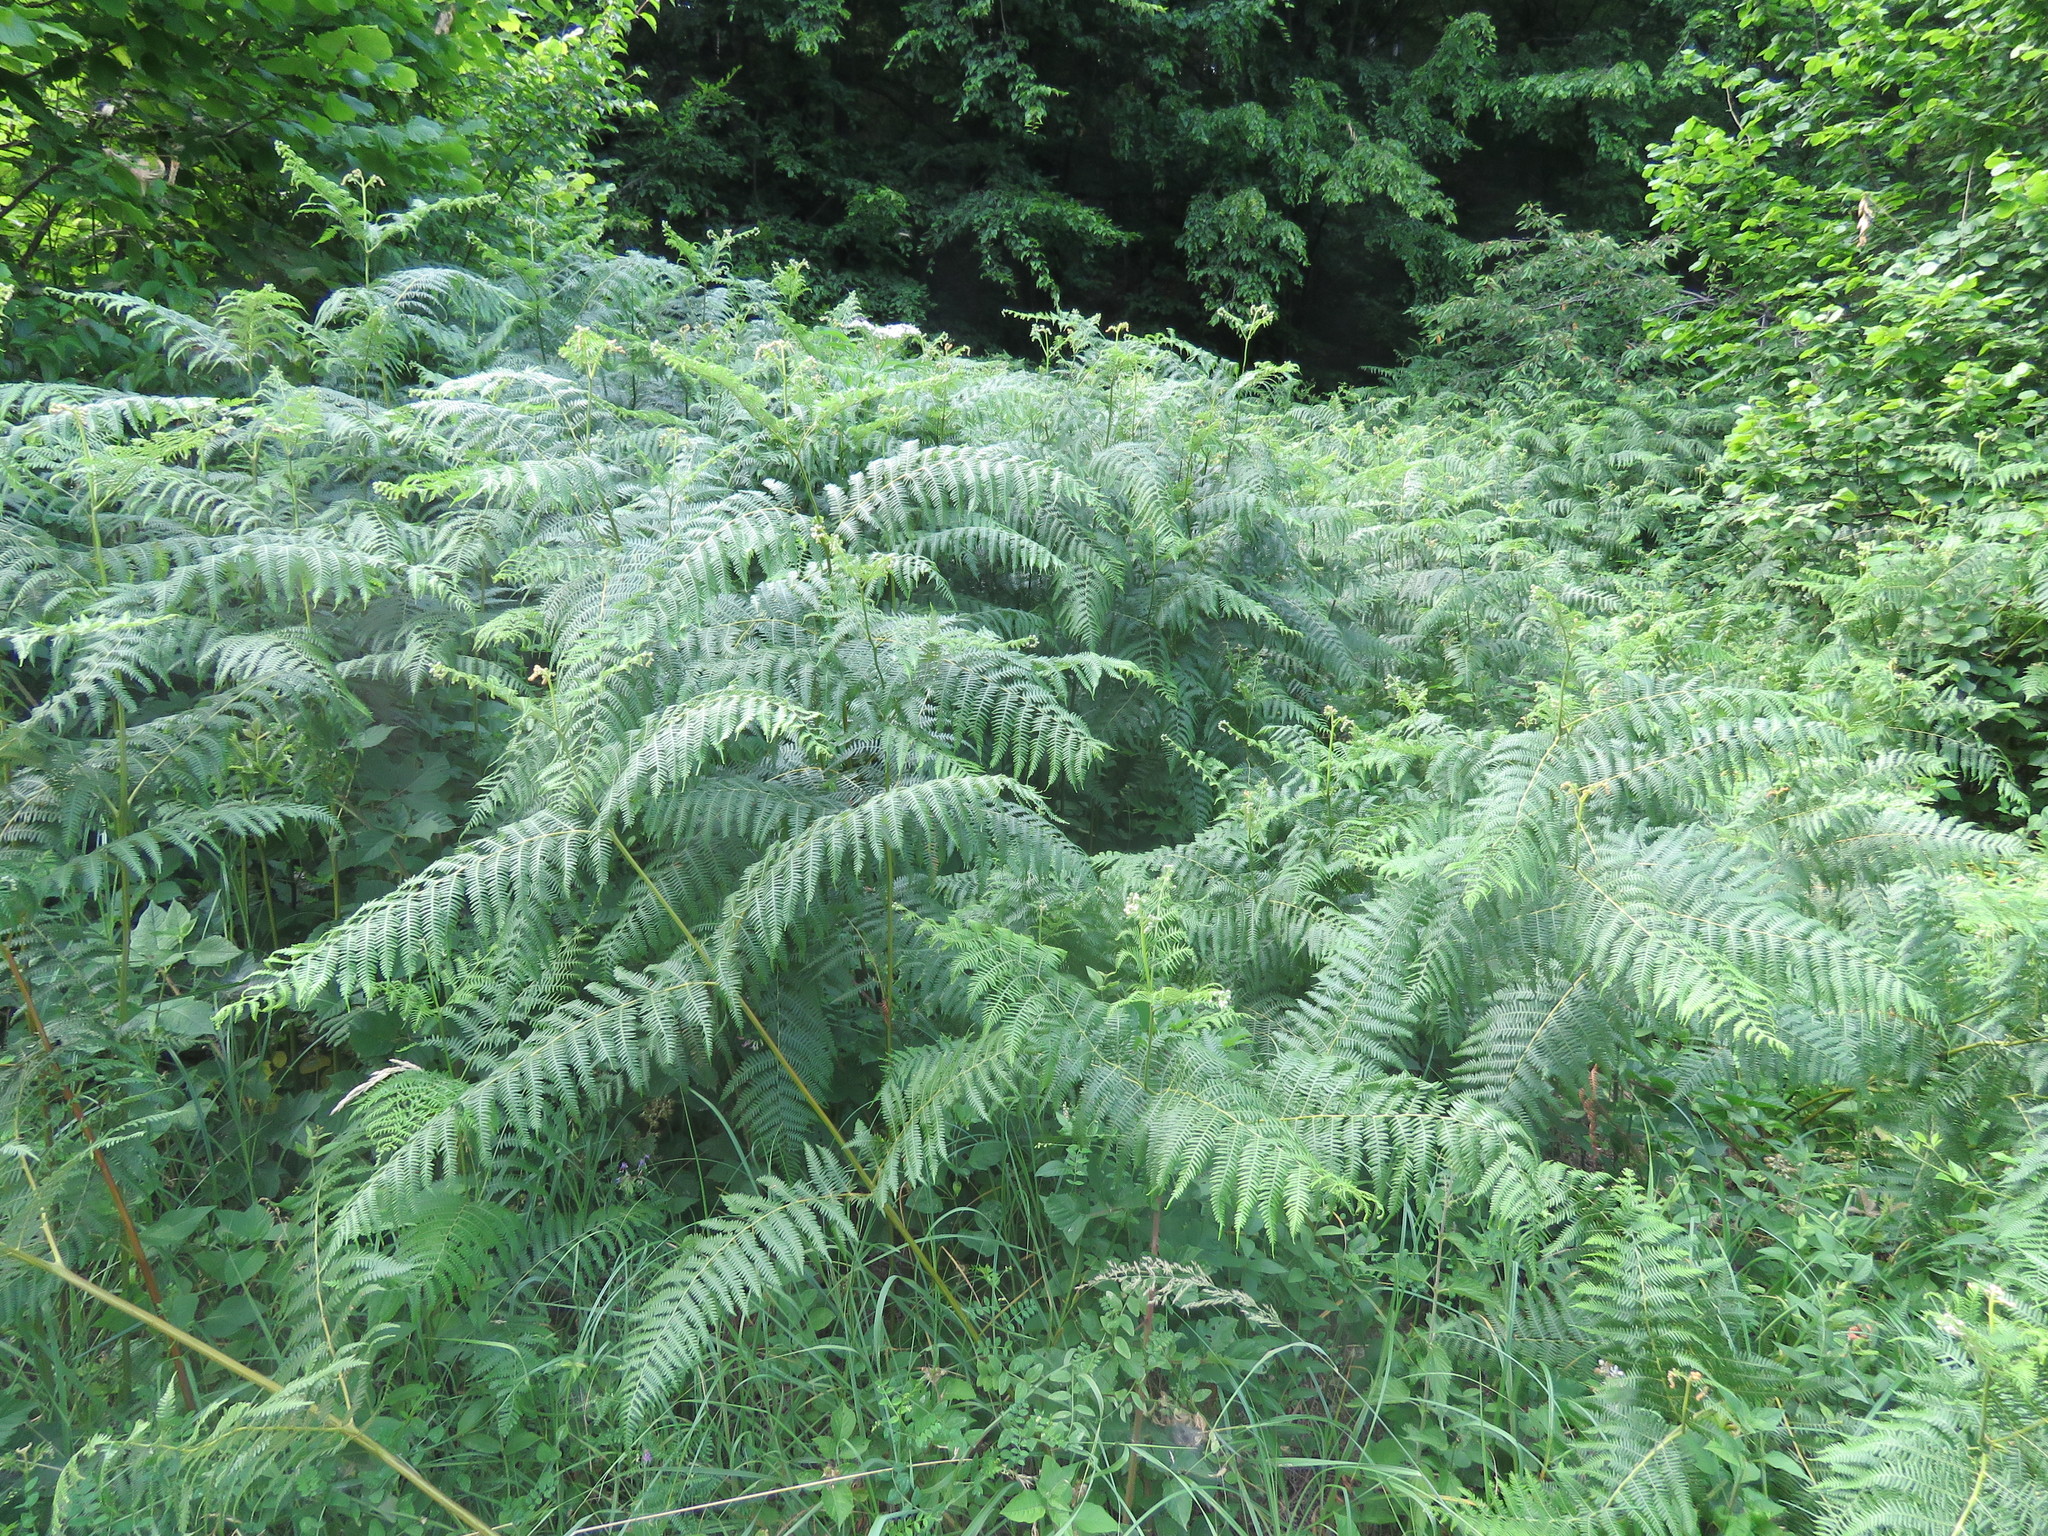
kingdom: Plantae
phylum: Tracheophyta
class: Polypodiopsida
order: Polypodiales
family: Dennstaedtiaceae
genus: Pteridium
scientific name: Pteridium aquilinum
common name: Bracken
